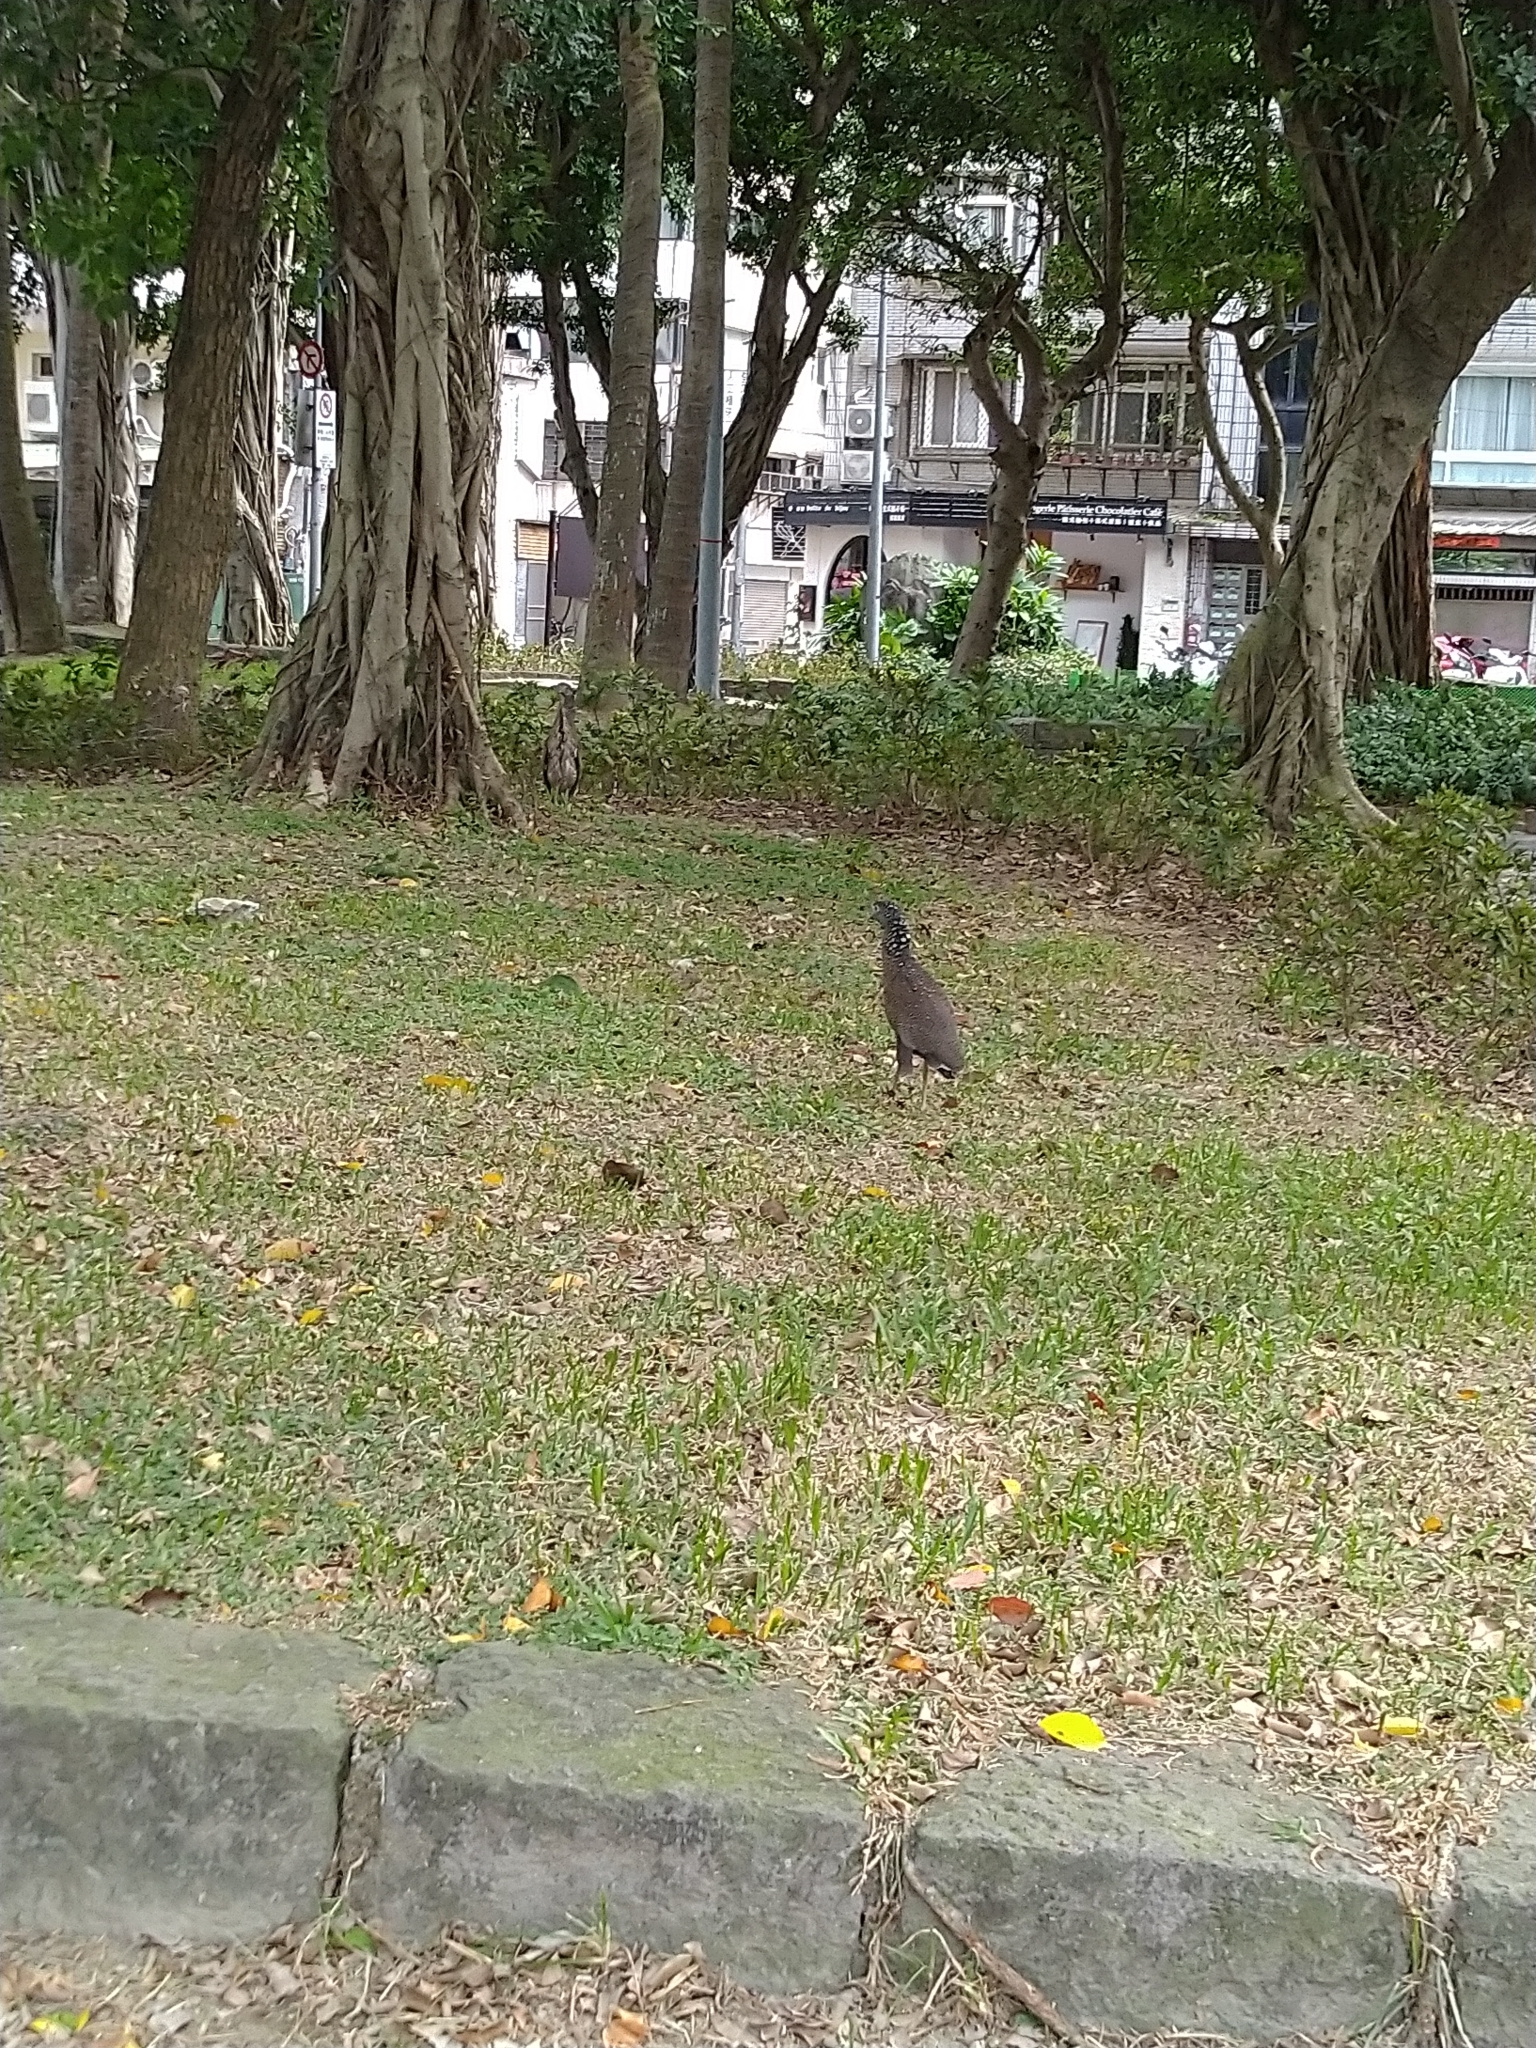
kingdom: Animalia
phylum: Chordata
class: Aves
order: Pelecaniformes
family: Ardeidae
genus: Gorsachius
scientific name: Gorsachius melanolophus
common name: Malayan night heron
